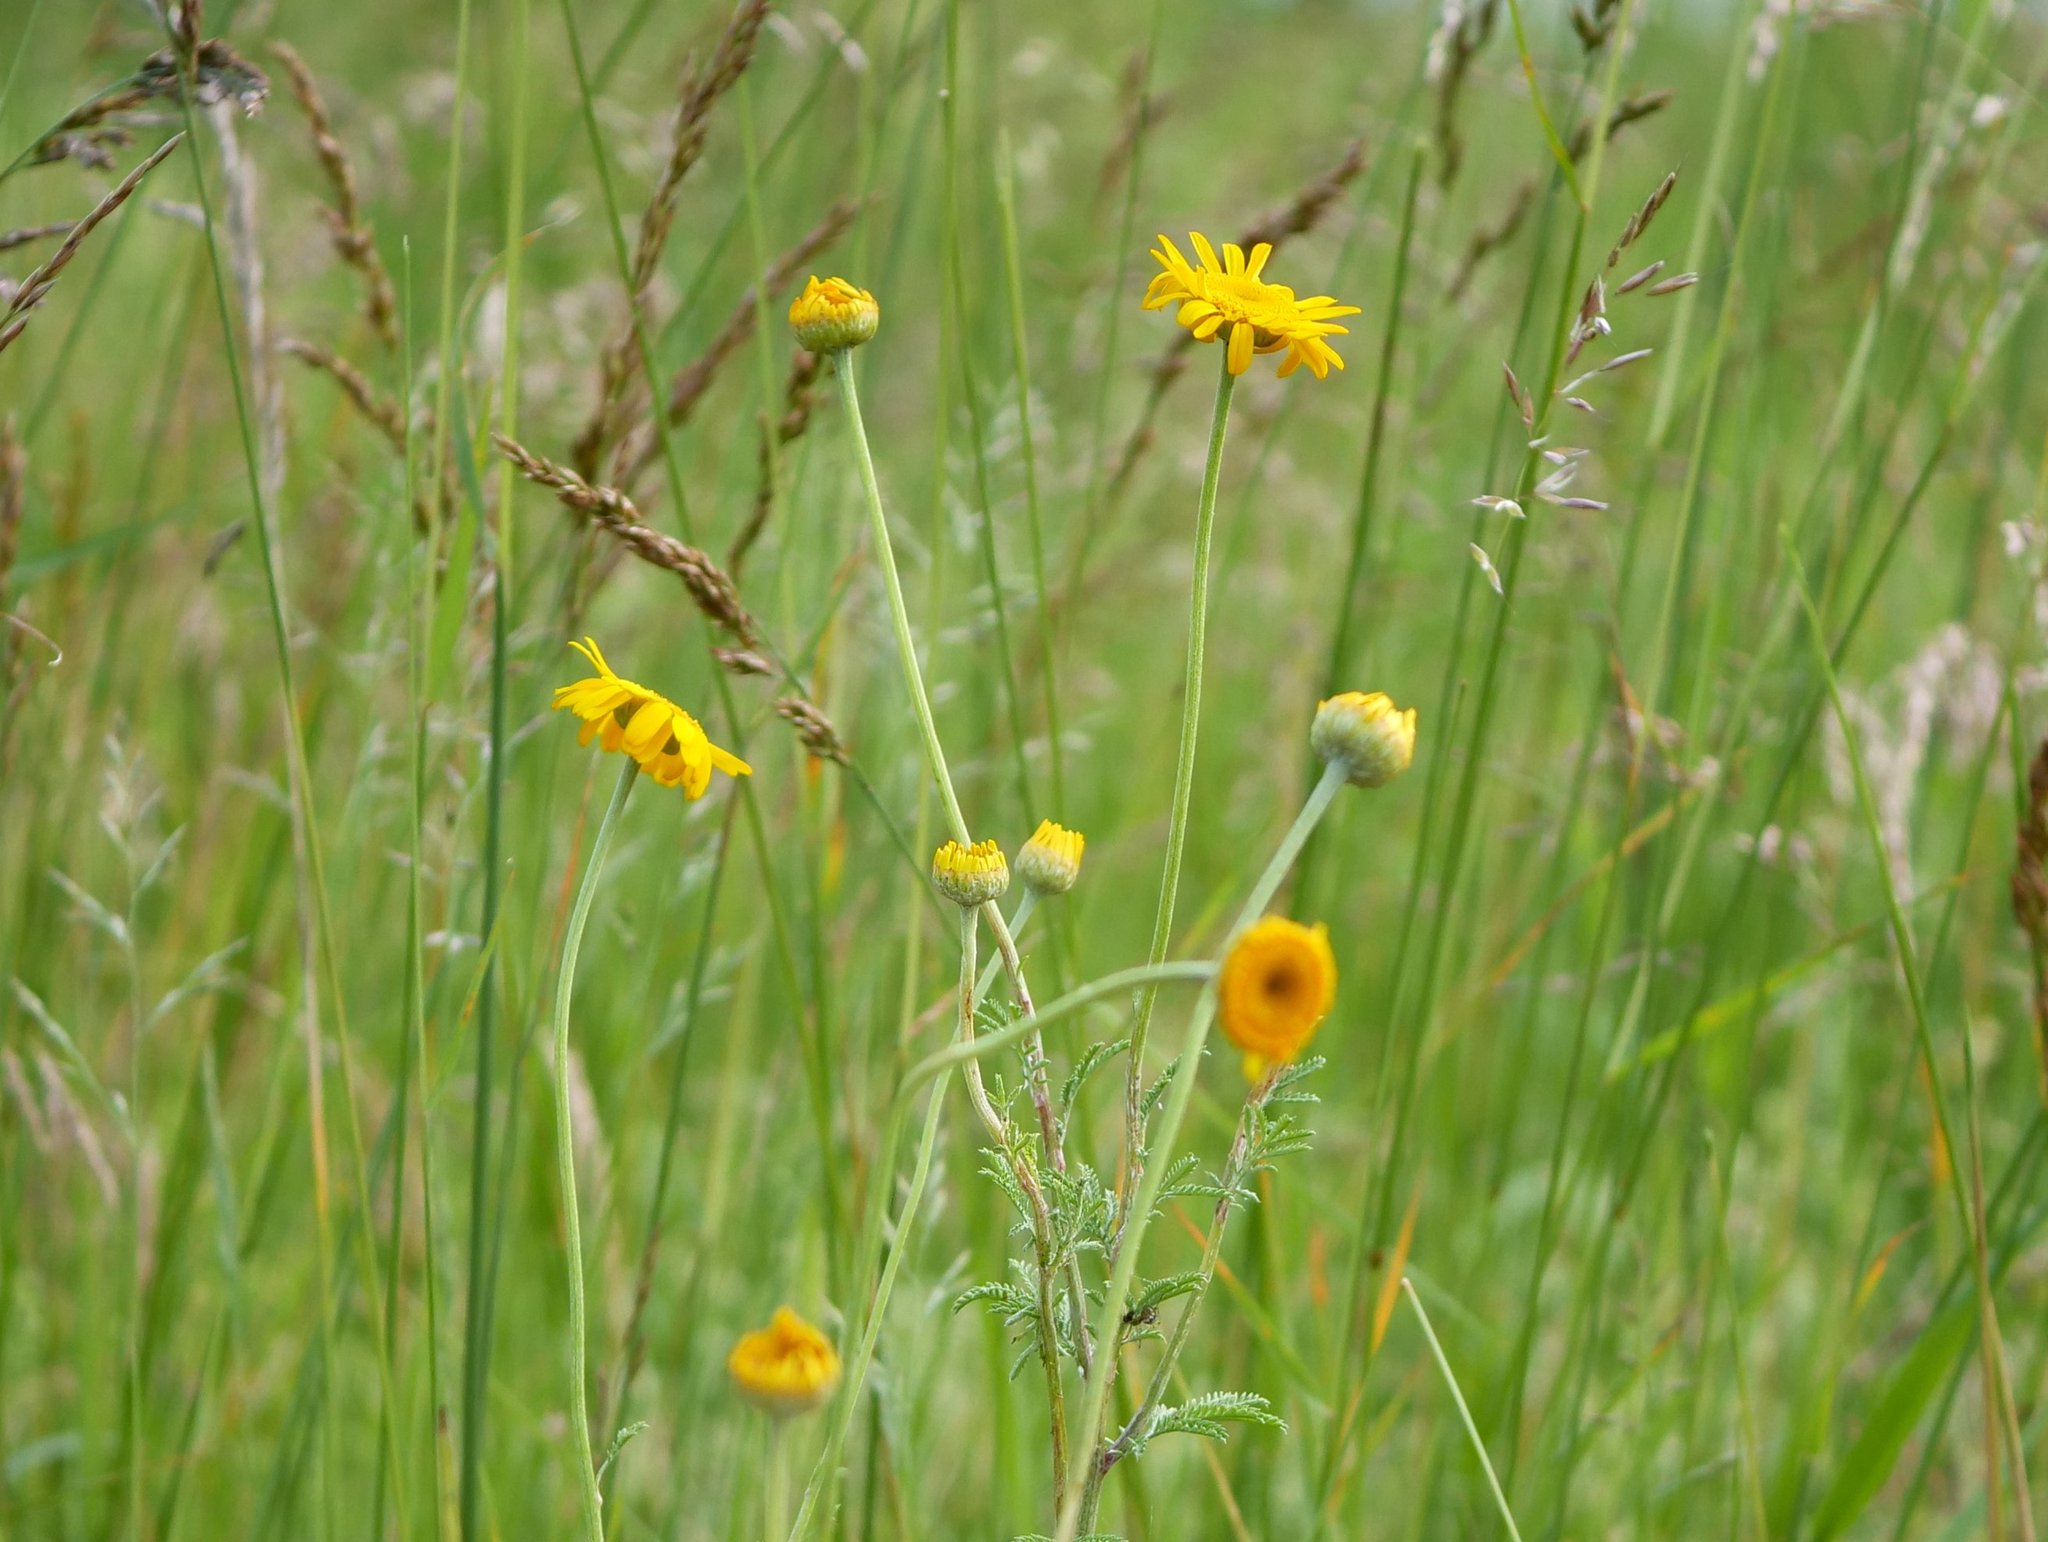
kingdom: Plantae
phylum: Tracheophyta
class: Magnoliopsida
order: Asterales
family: Asteraceae
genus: Cota
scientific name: Cota tinctoria
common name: Golden chamomile
